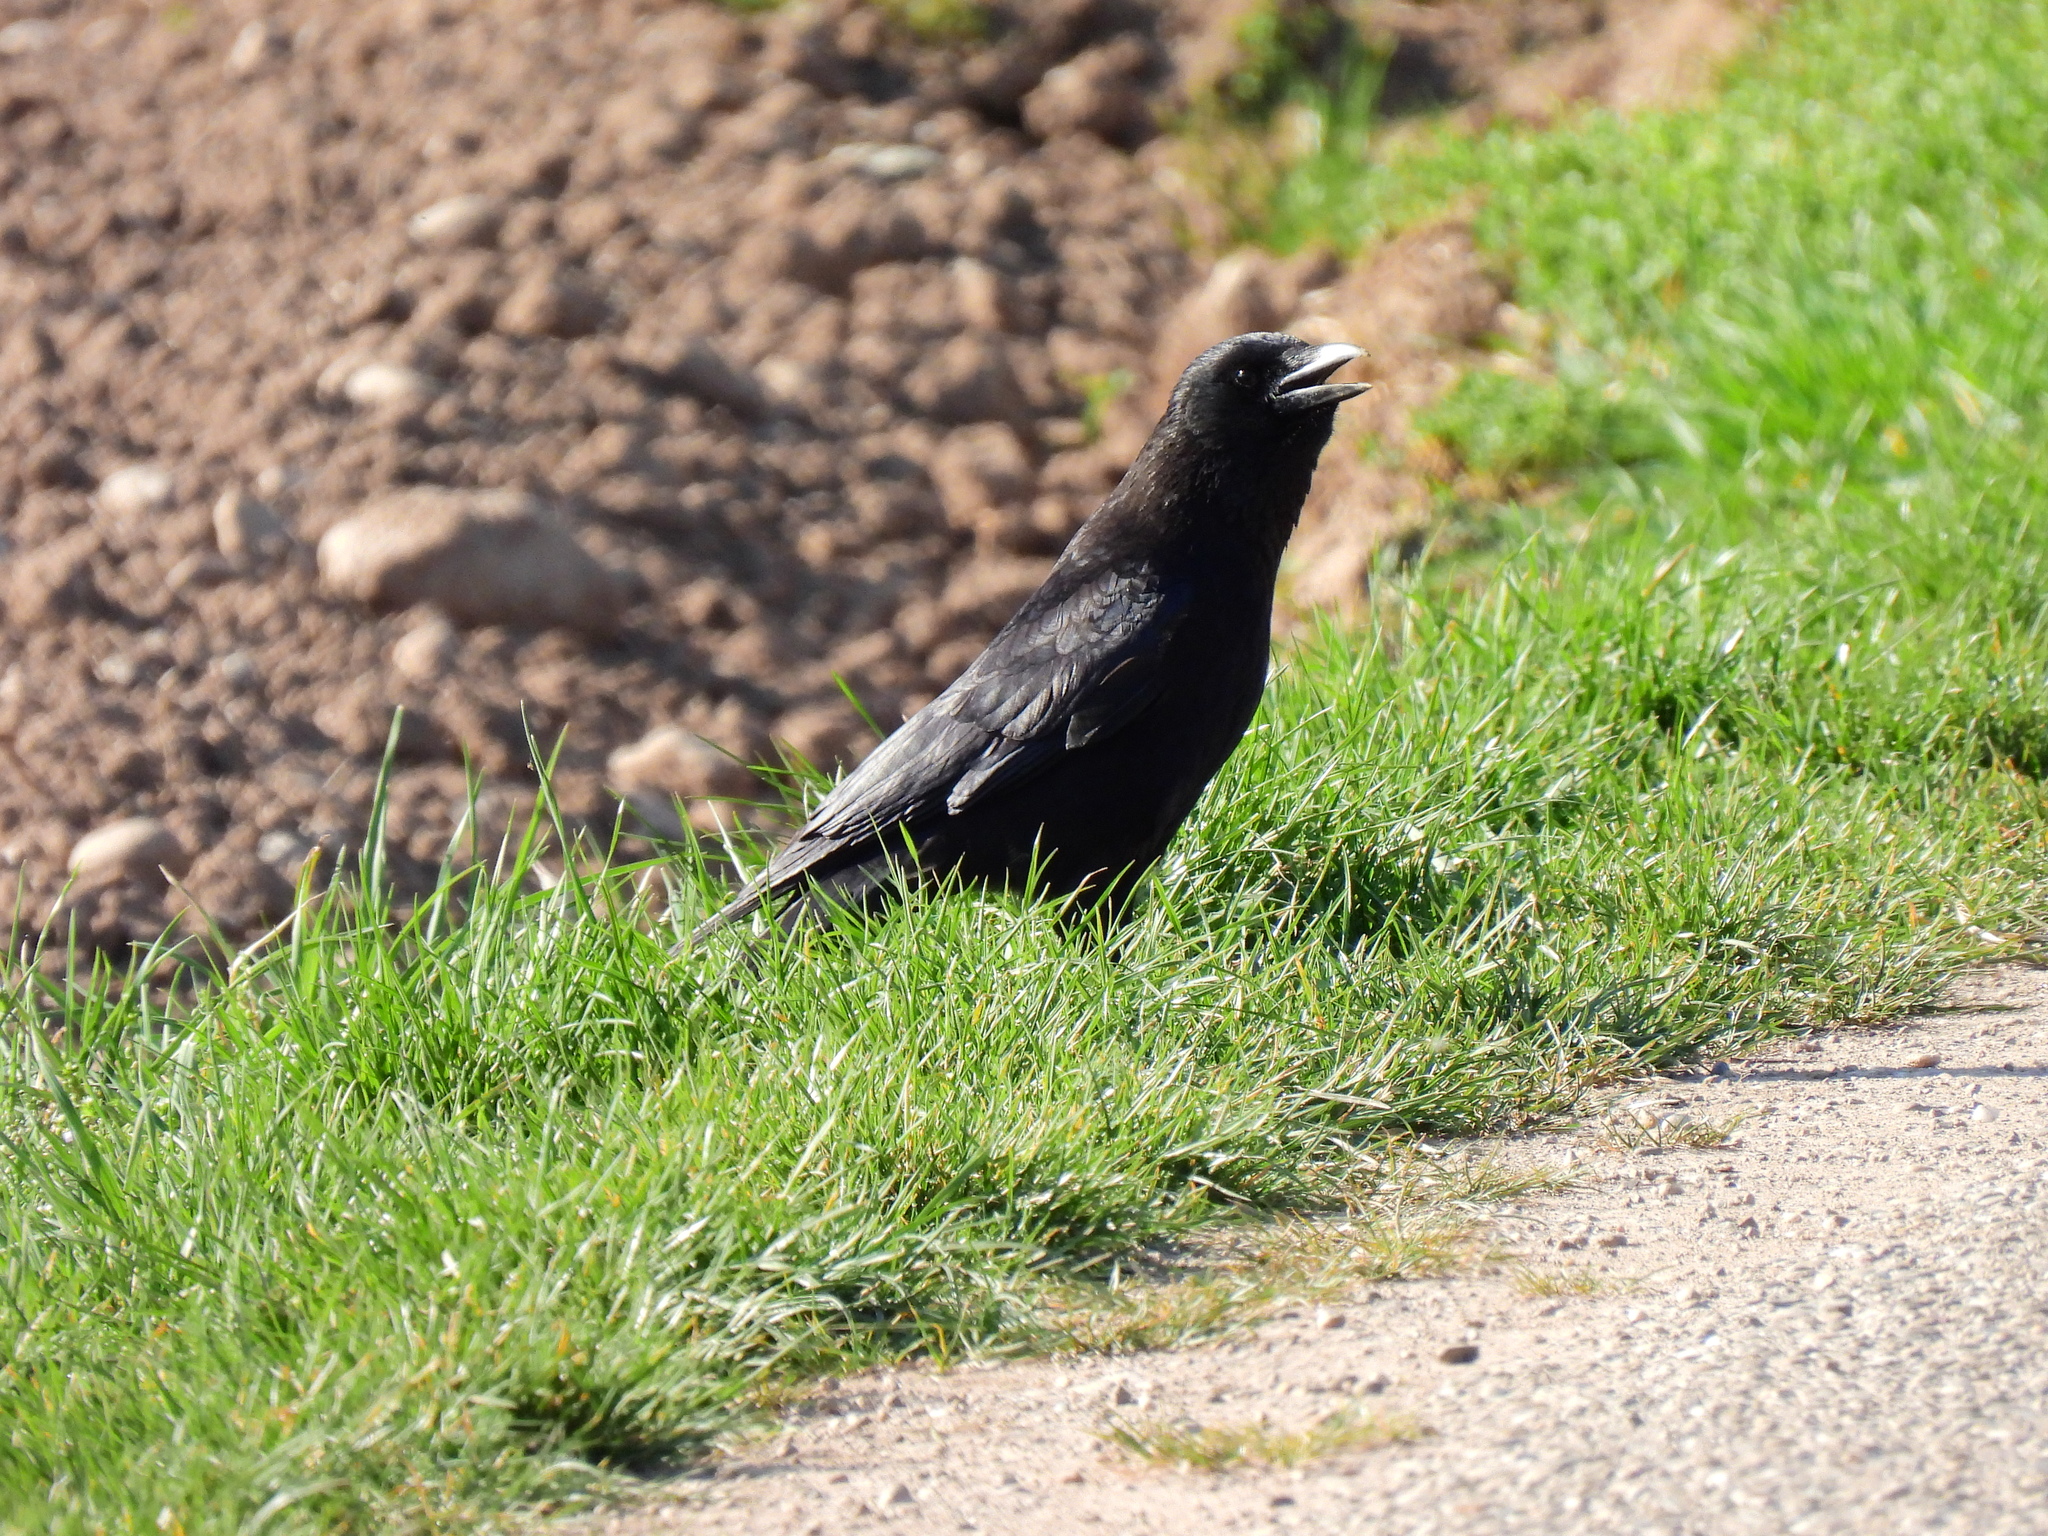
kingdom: Animalia
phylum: Chordata
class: Aves
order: Passeriformes
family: Corvidae
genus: Corvus
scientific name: Corvus corone
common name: Carrion crow
